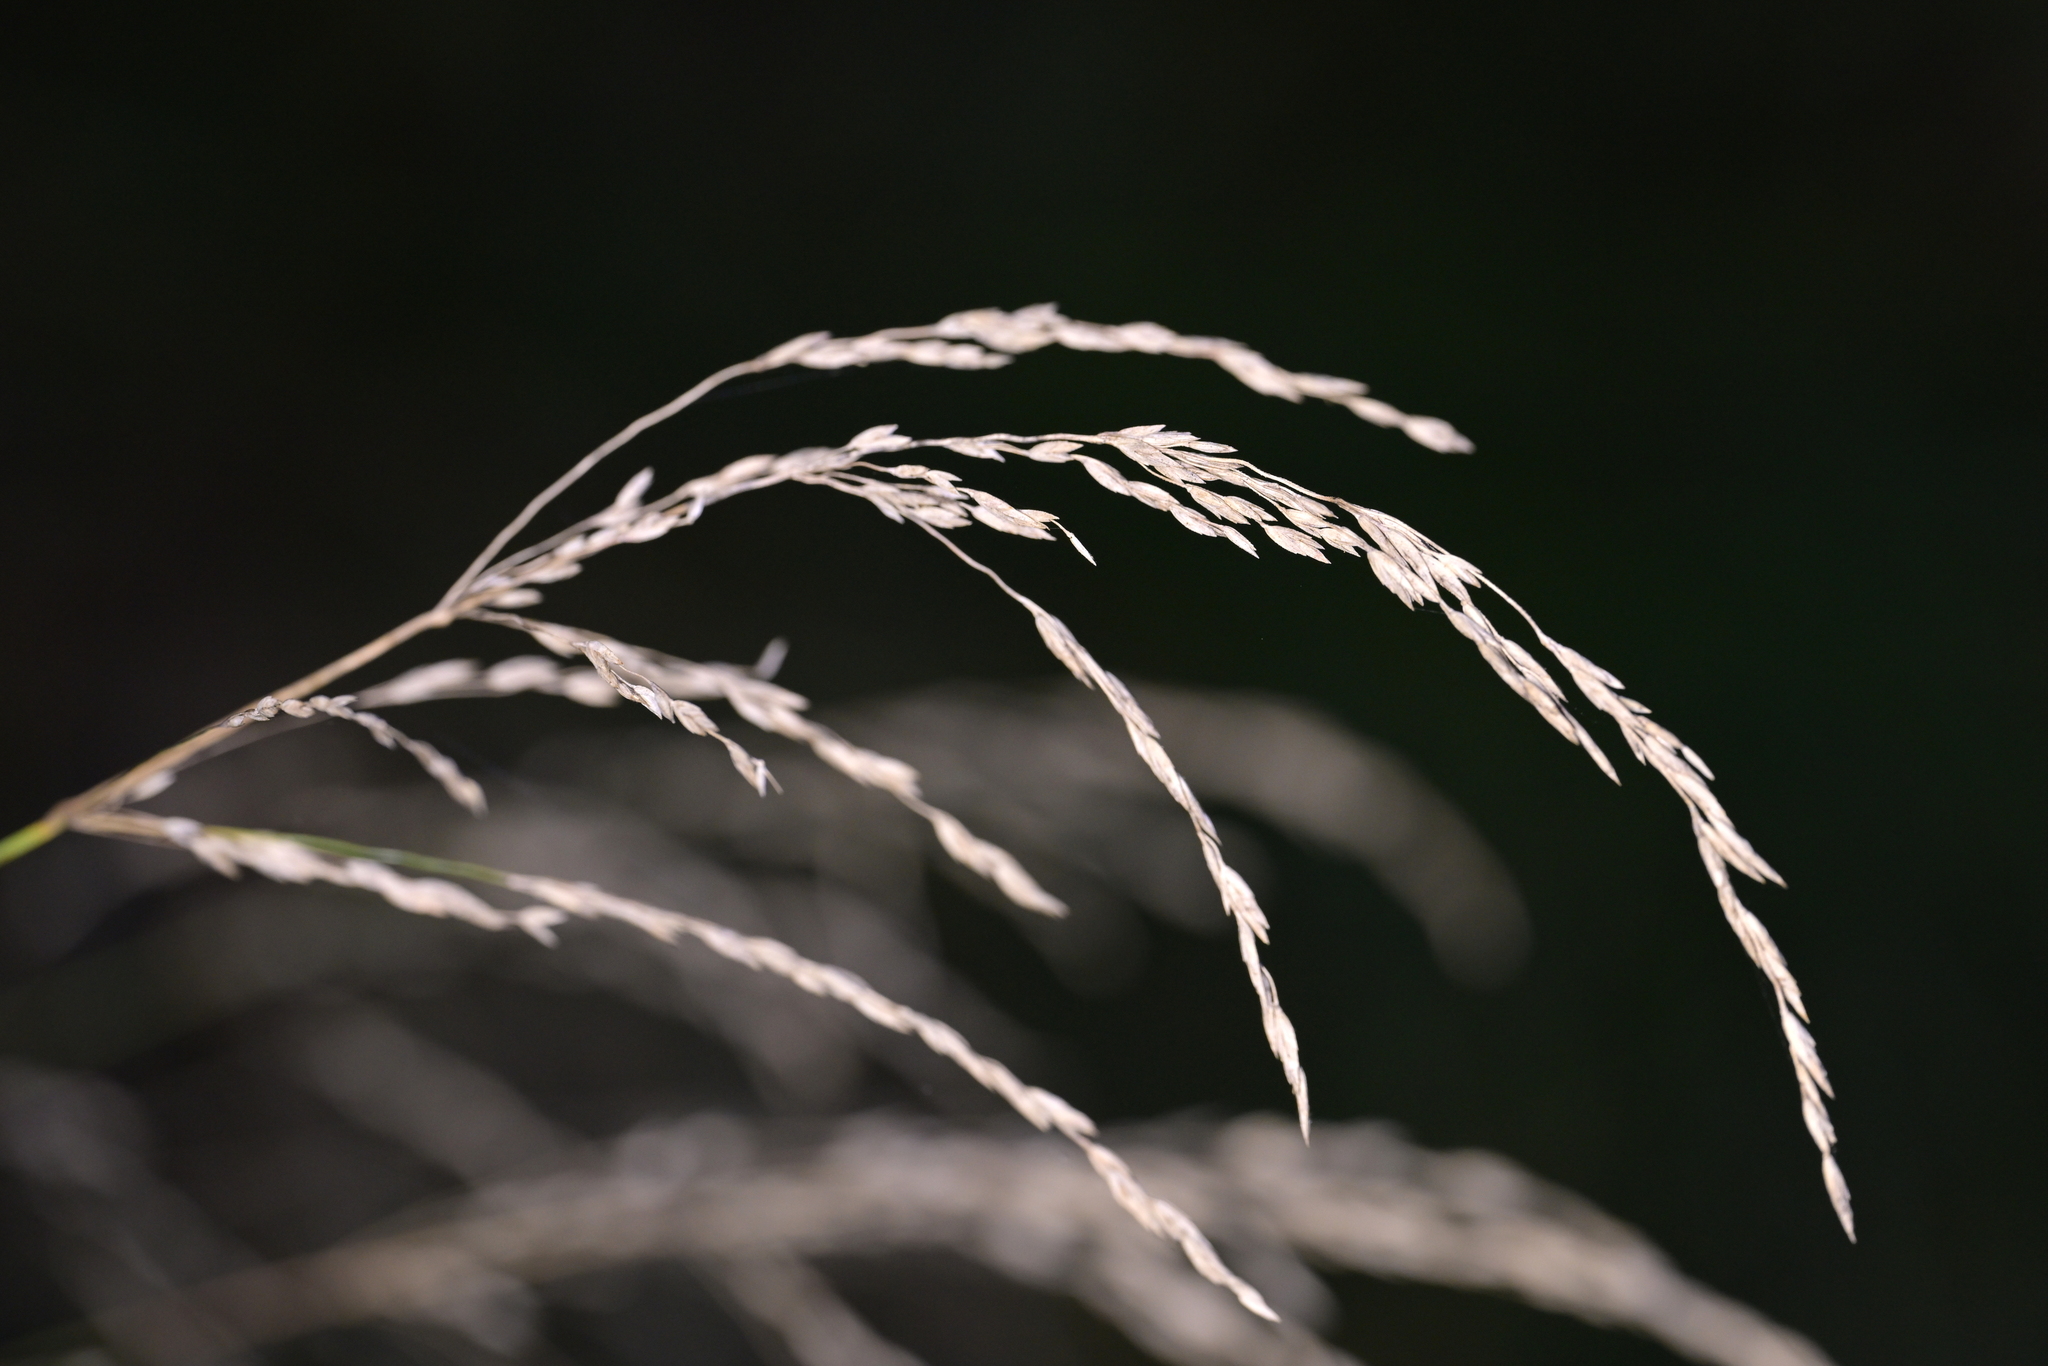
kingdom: Plantae
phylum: Tracheophyta
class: Liliopsida
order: Poales
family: Poaceae
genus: Poa
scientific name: Poa anceps
